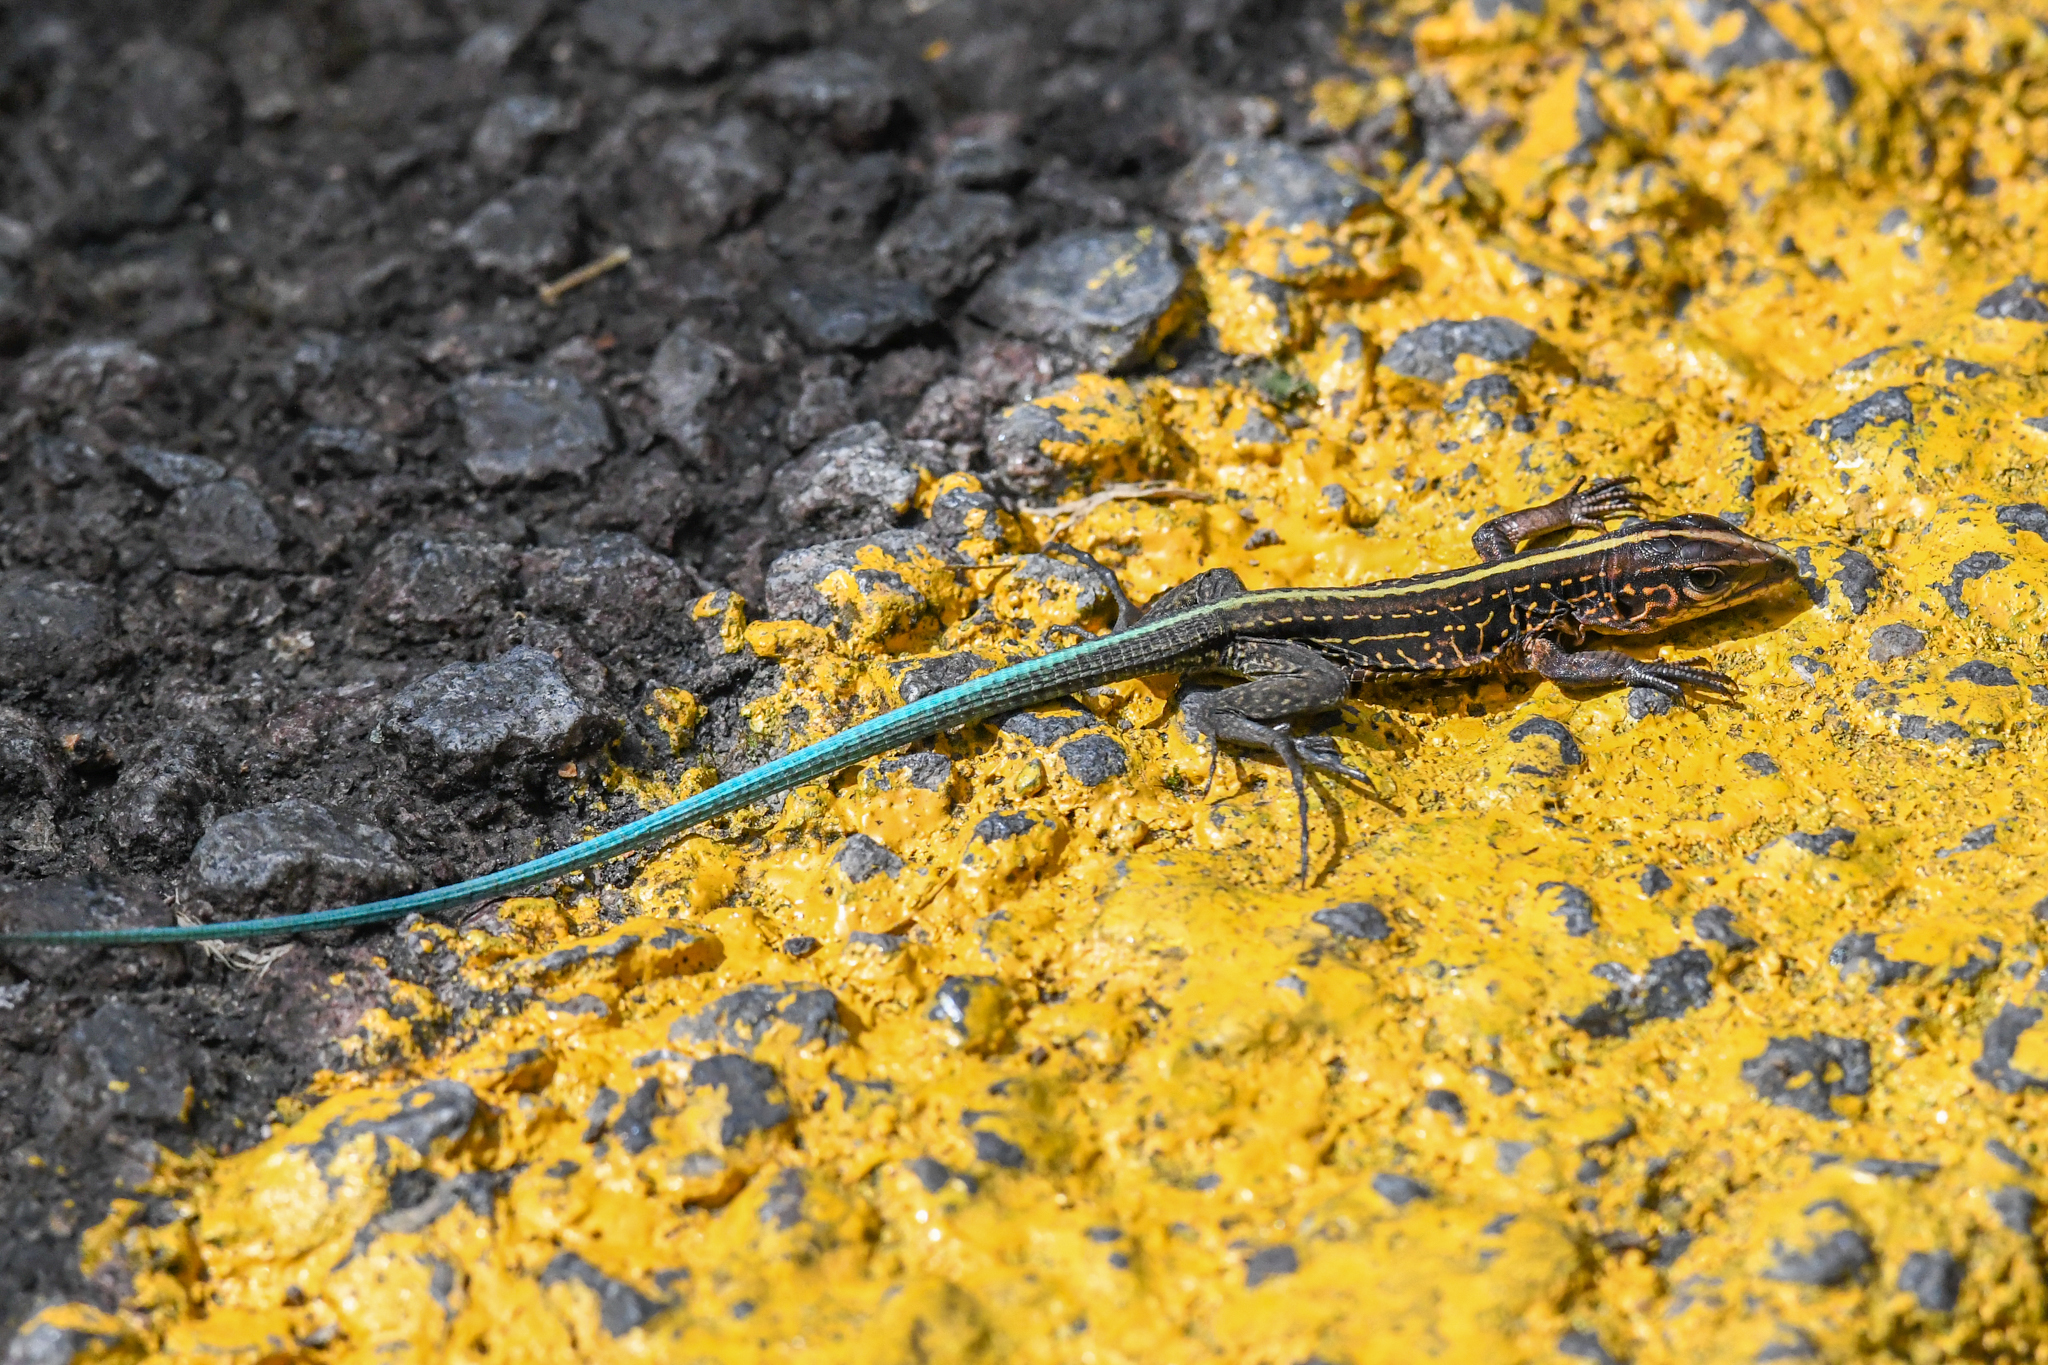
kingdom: Animalia
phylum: Chordata
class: Squamata
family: Teiidae
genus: Holcosus
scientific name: Holcosus festivus
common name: Middle american ameiva
